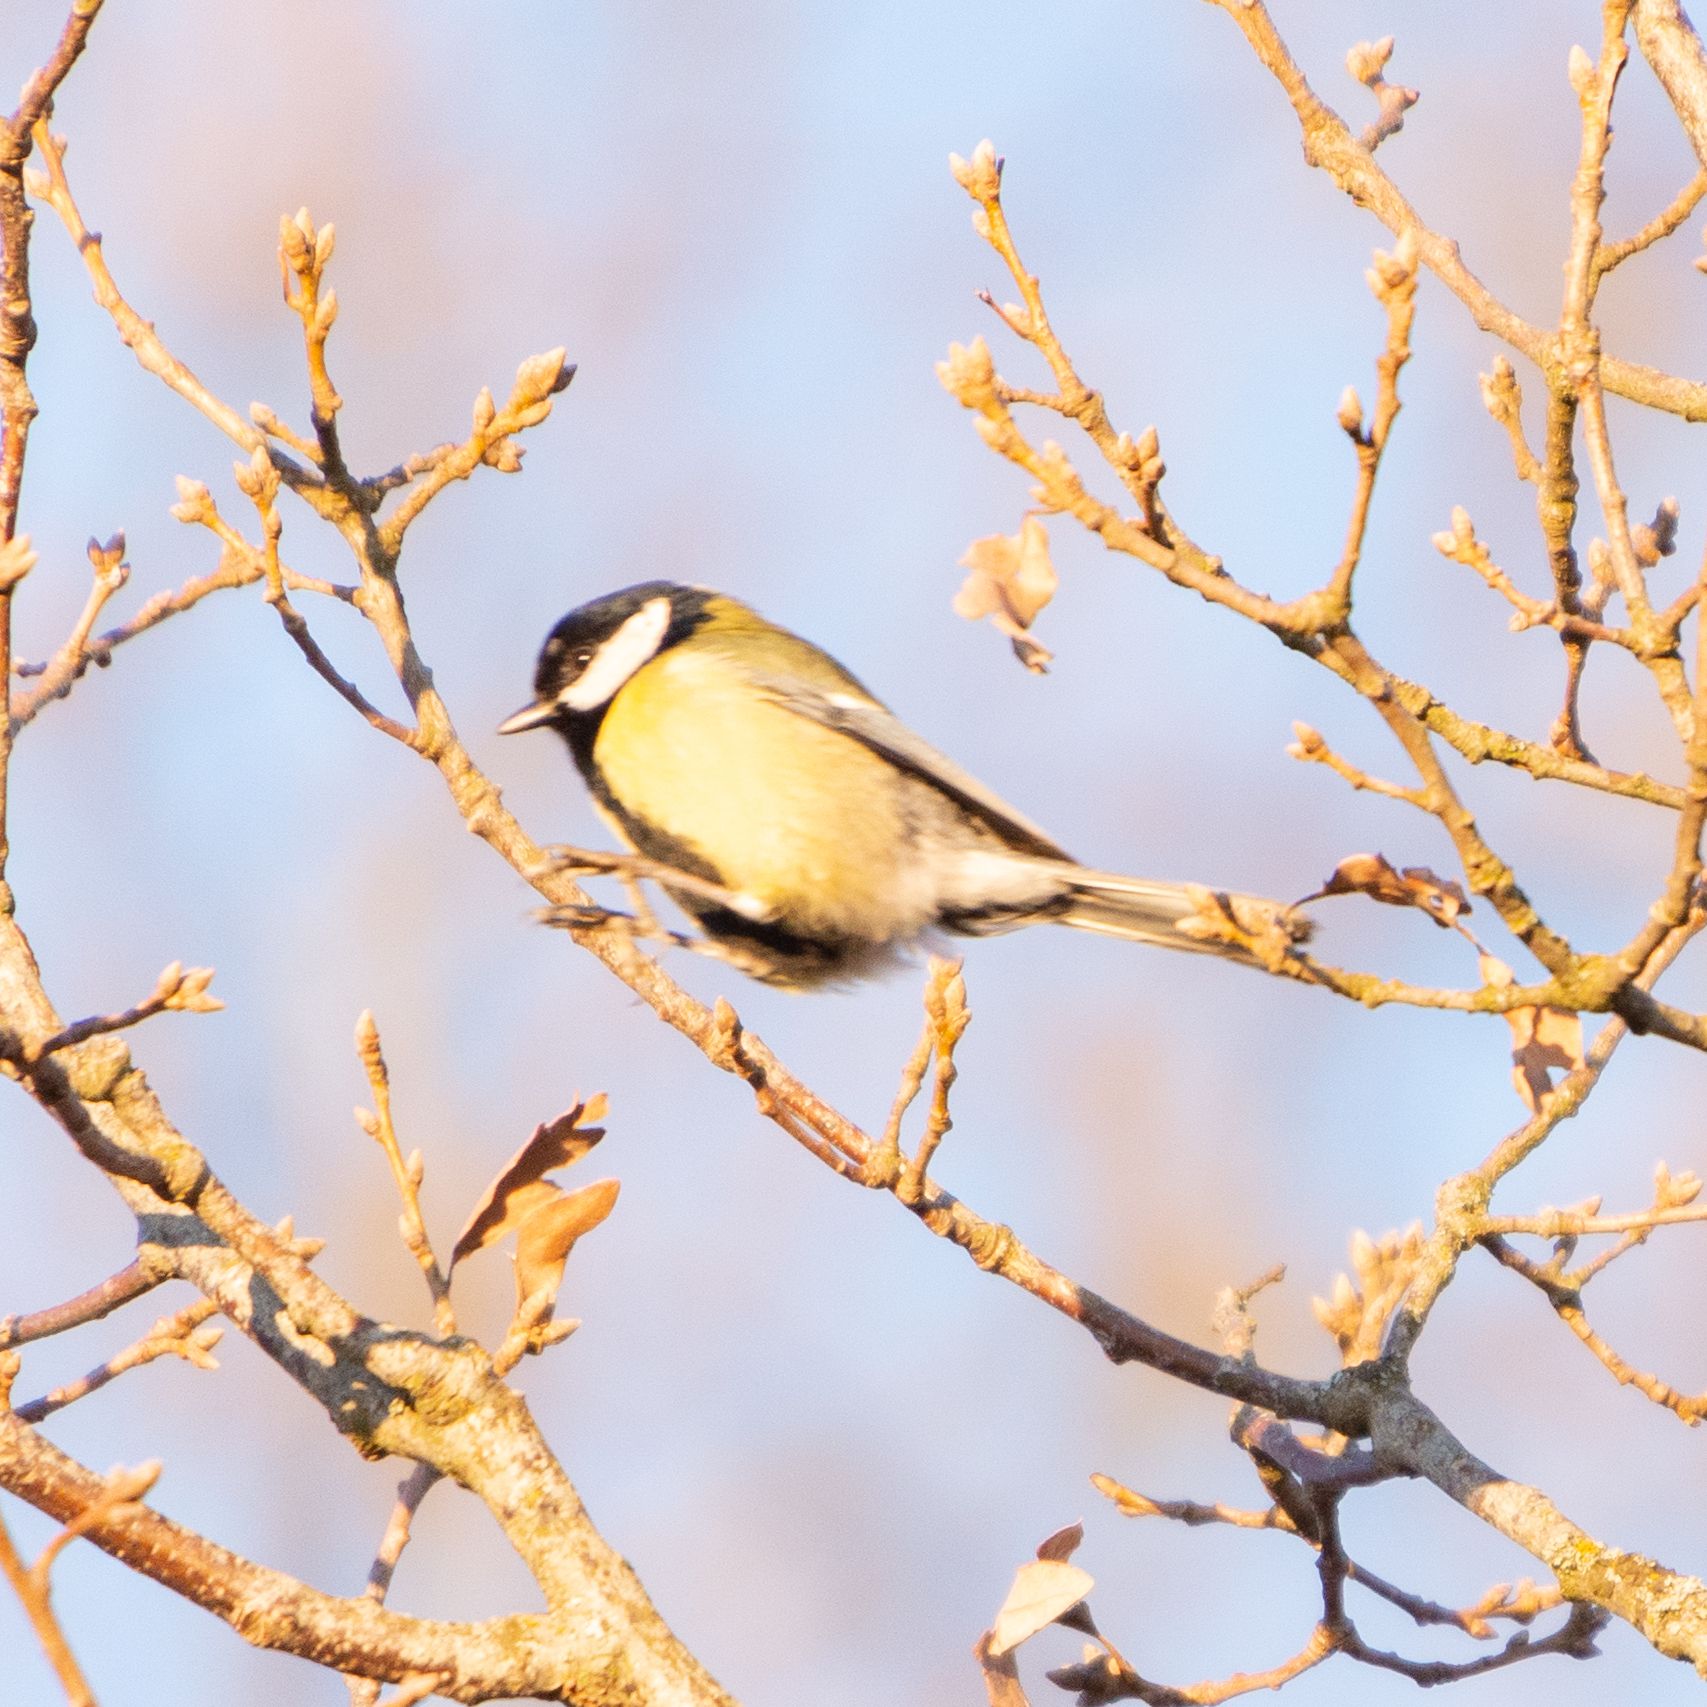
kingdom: Animalia
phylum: Chordata
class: Aves
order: Passeriformes
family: Paridae
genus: Parus
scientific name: Parus major
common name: Great tit
